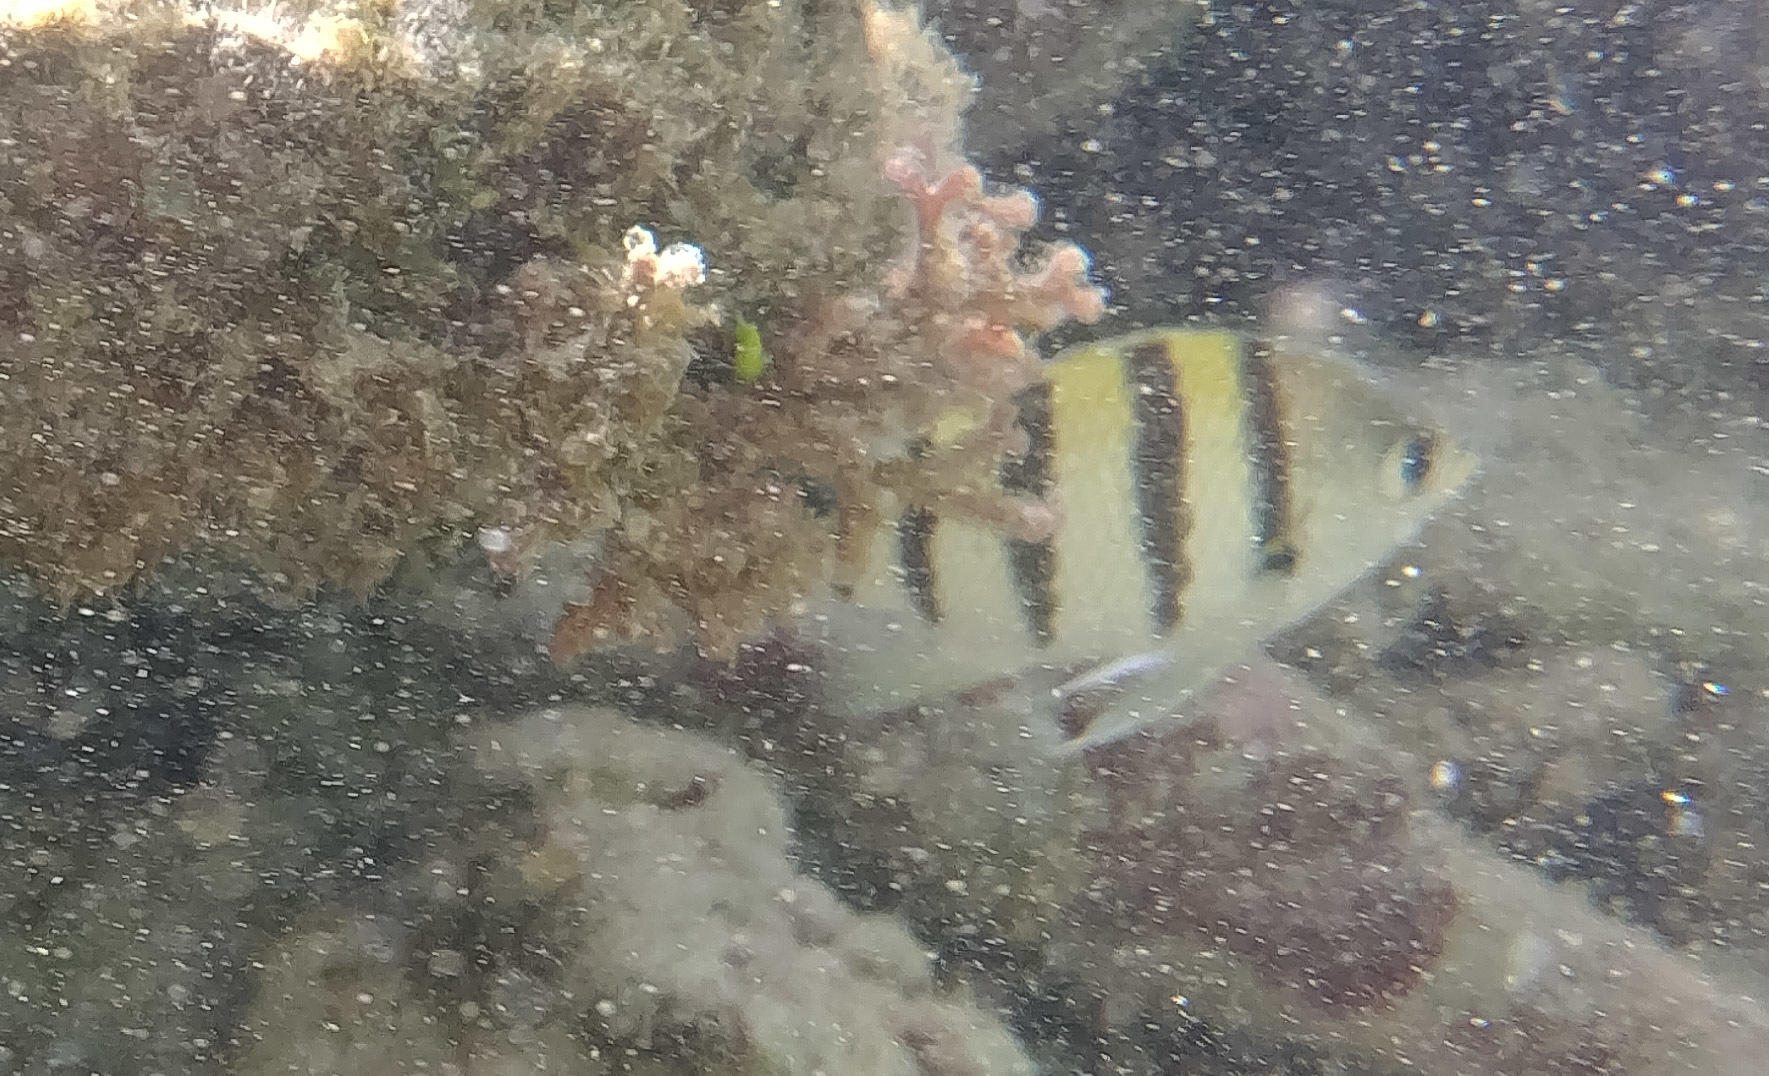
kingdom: Animalia
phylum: Chordata
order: Perciformes
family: Pomacentridae
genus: Abudefduf
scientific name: Abudefduf abdominalis
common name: Green damselfish
